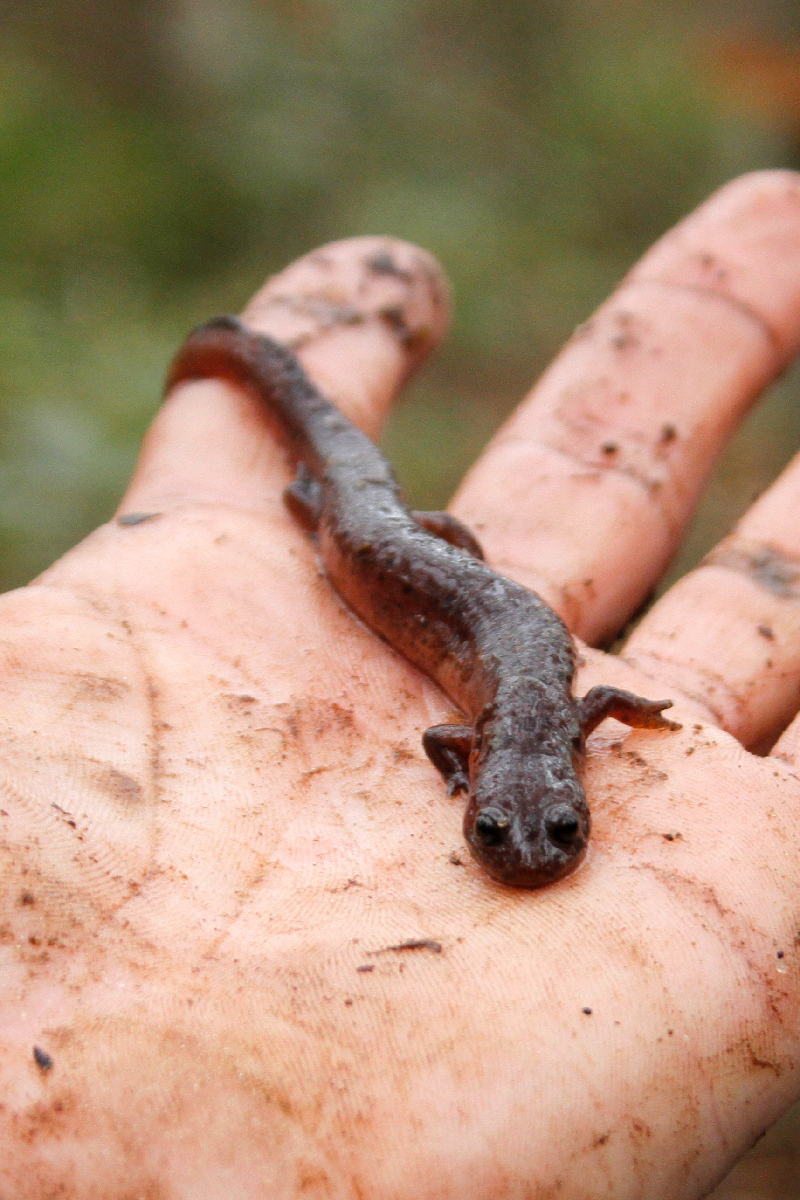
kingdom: Animalia
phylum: Chordata
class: Amphibia
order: Caudata
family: Plethodontidae
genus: Pseudotriton
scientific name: Pseudotriton montanus
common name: Mud salamander
